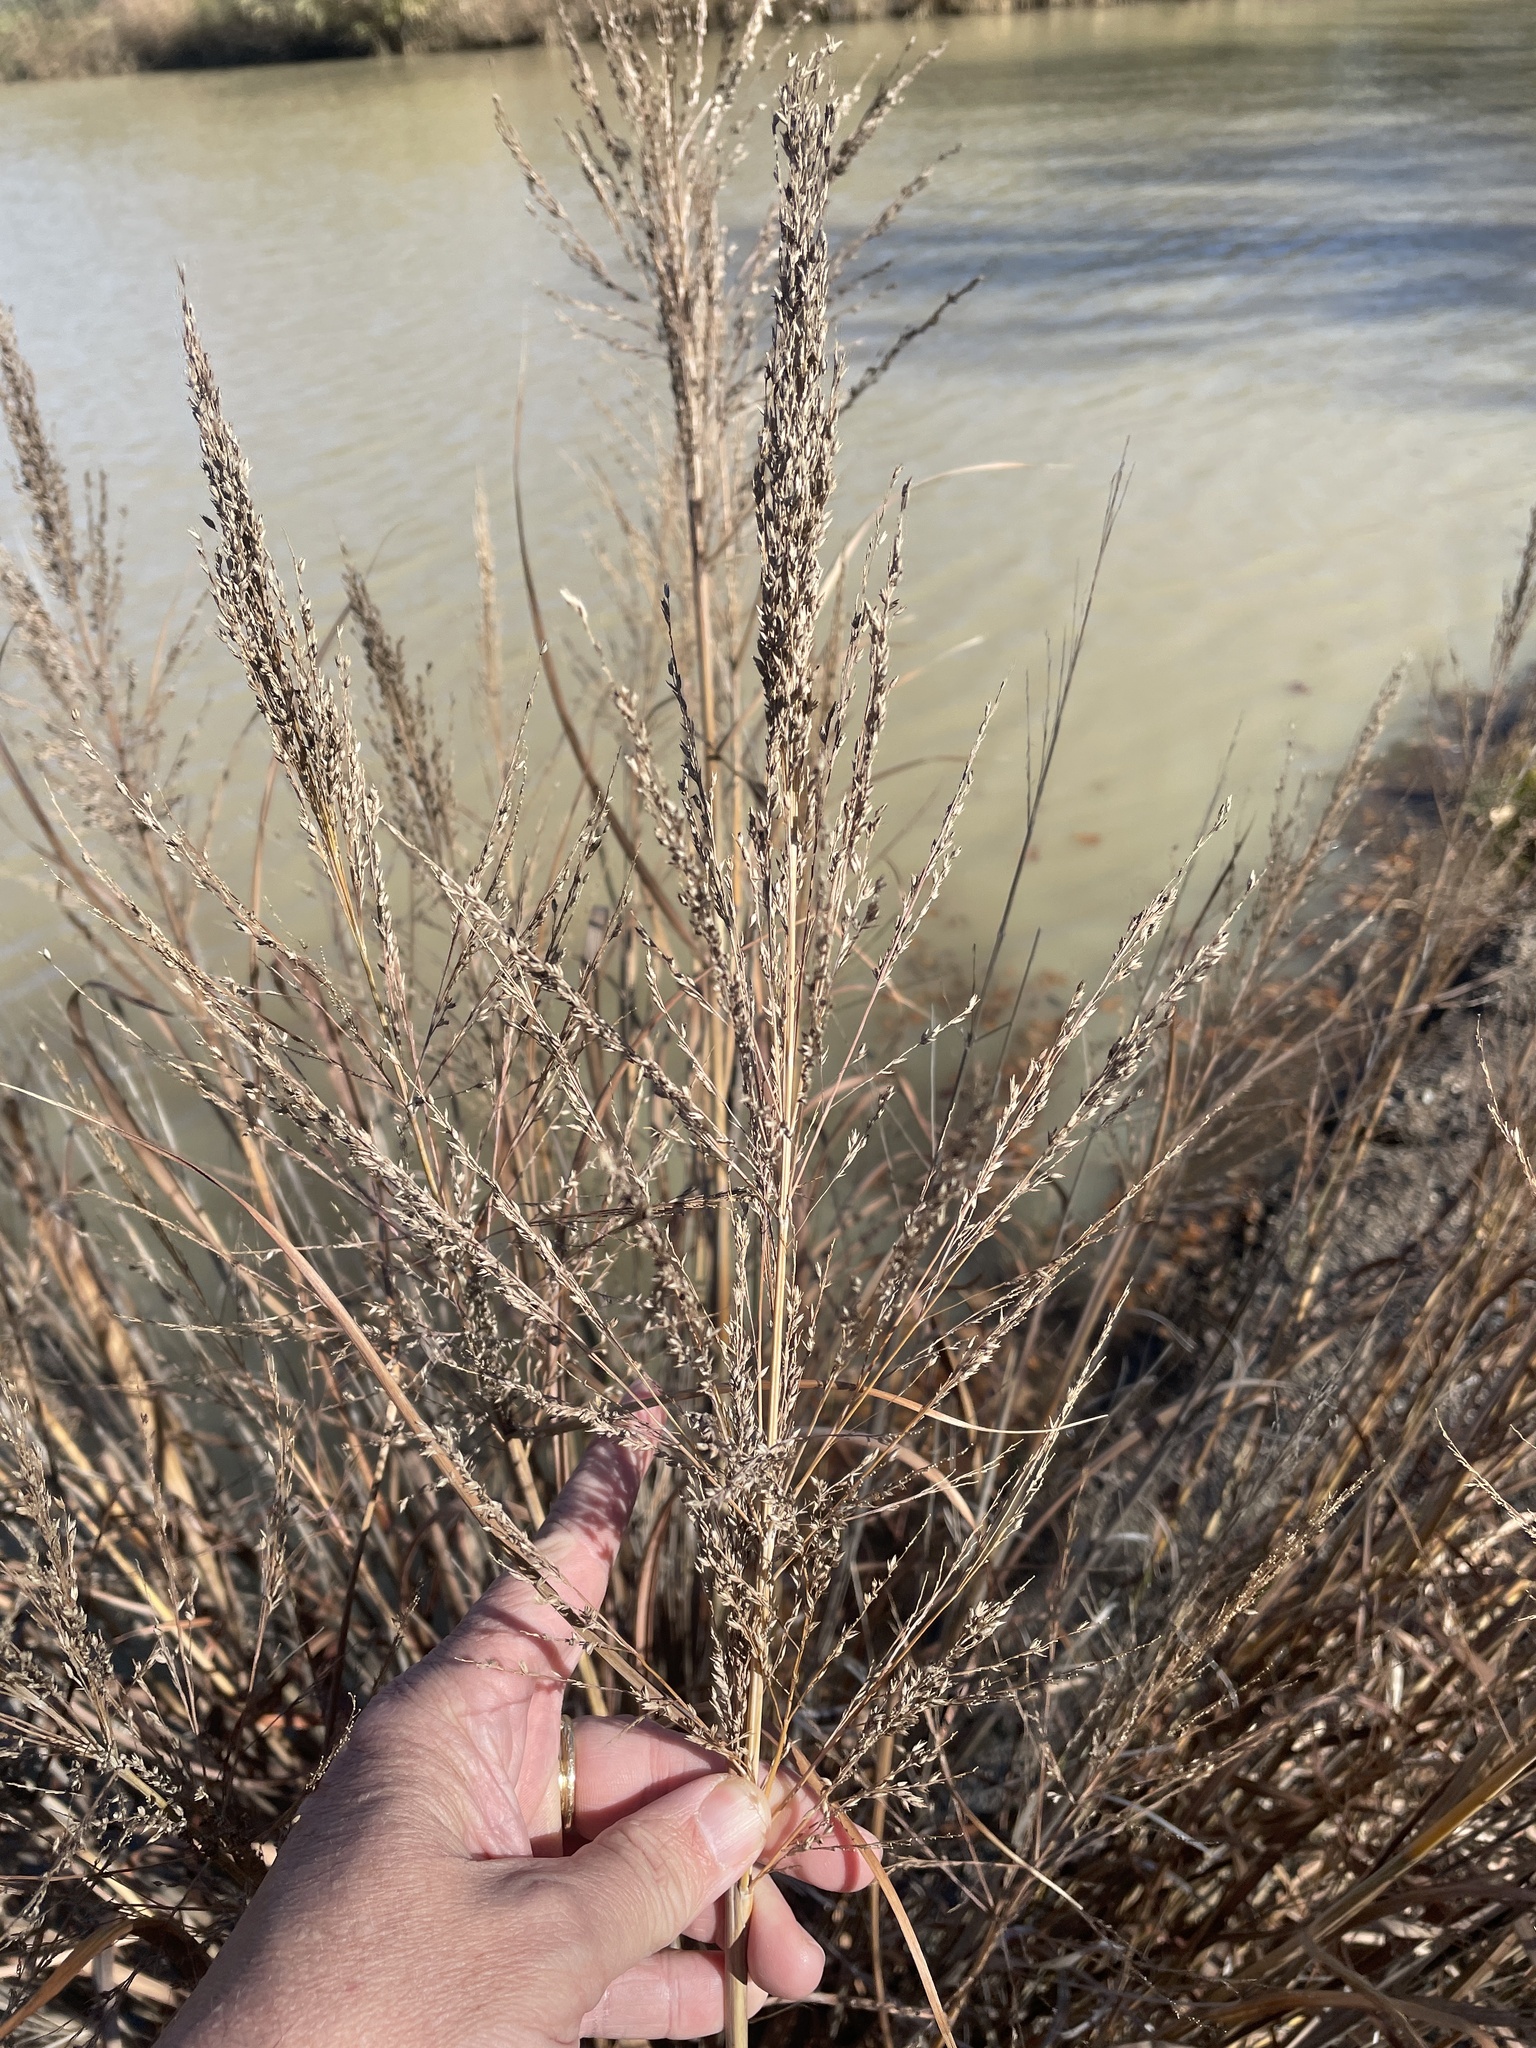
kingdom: Plantae
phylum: Tracheophyta
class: Liliopsida
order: Poales
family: Poaceae
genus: Panicum
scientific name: Panicum virgatum
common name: Switchgrass
